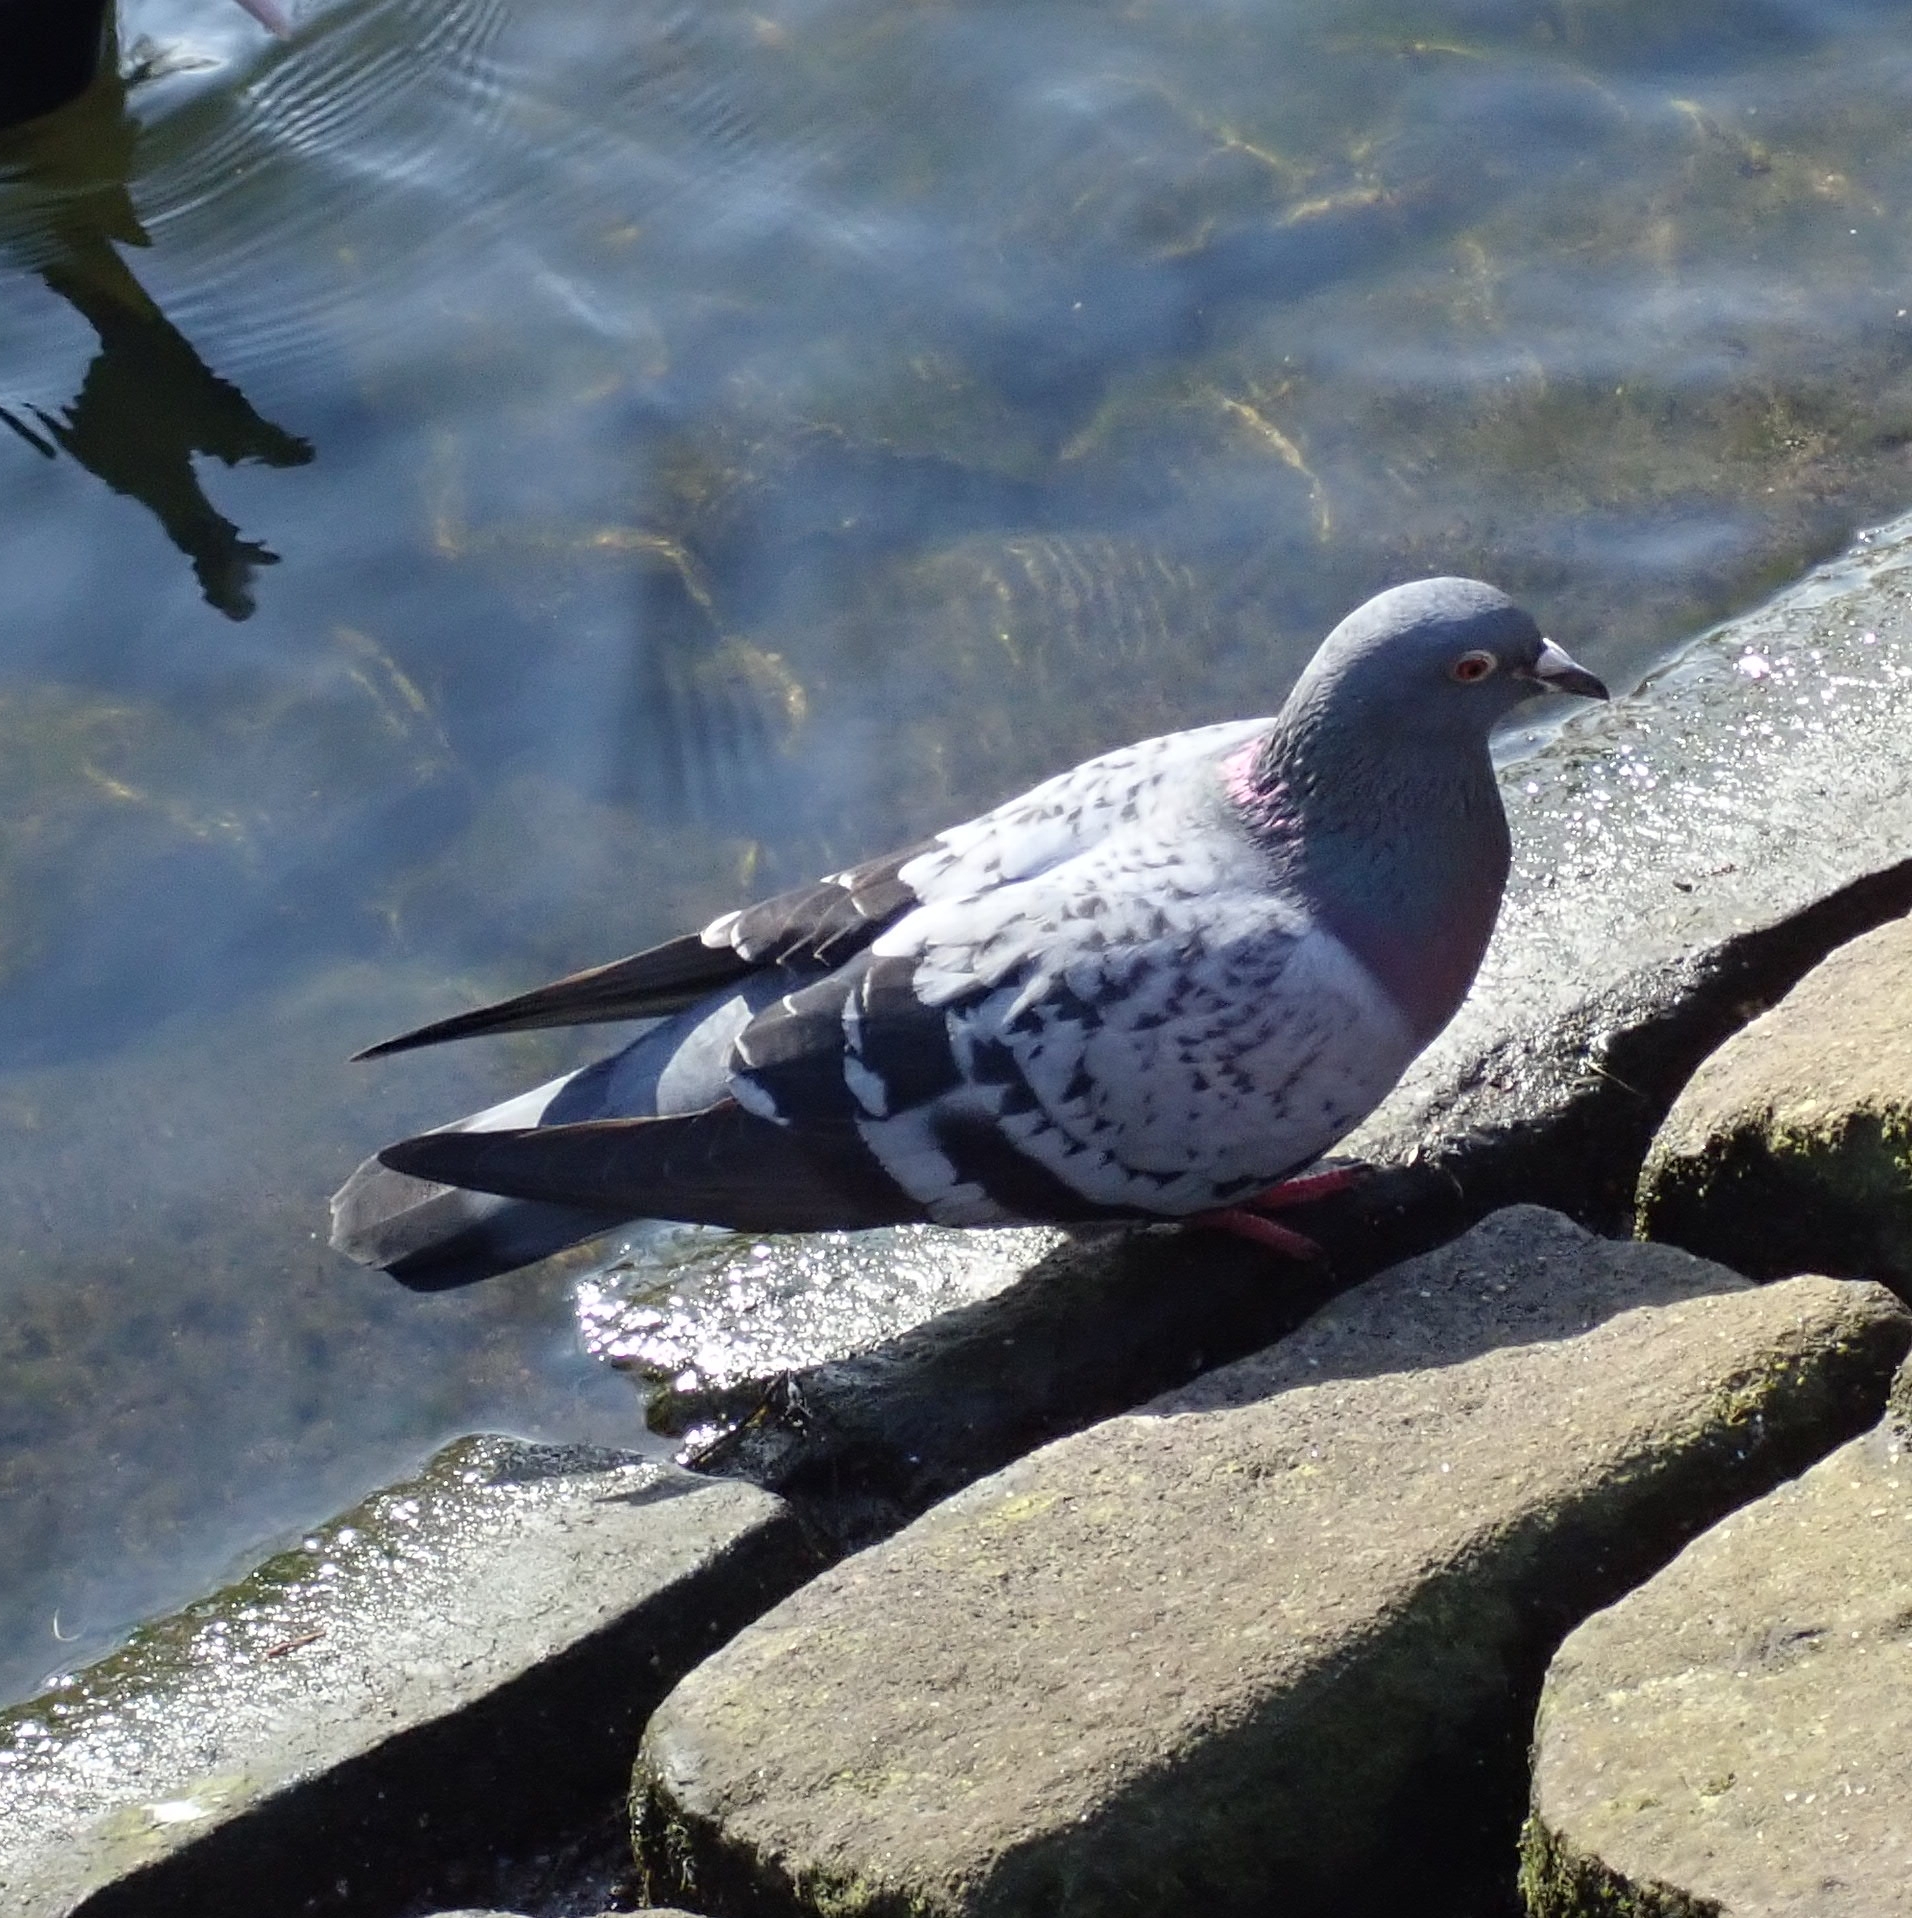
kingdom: Animalia
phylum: Chordata
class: Aves
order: Columbiformes
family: Columbidae
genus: Columba
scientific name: Columba livia
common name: Rock pigeon
